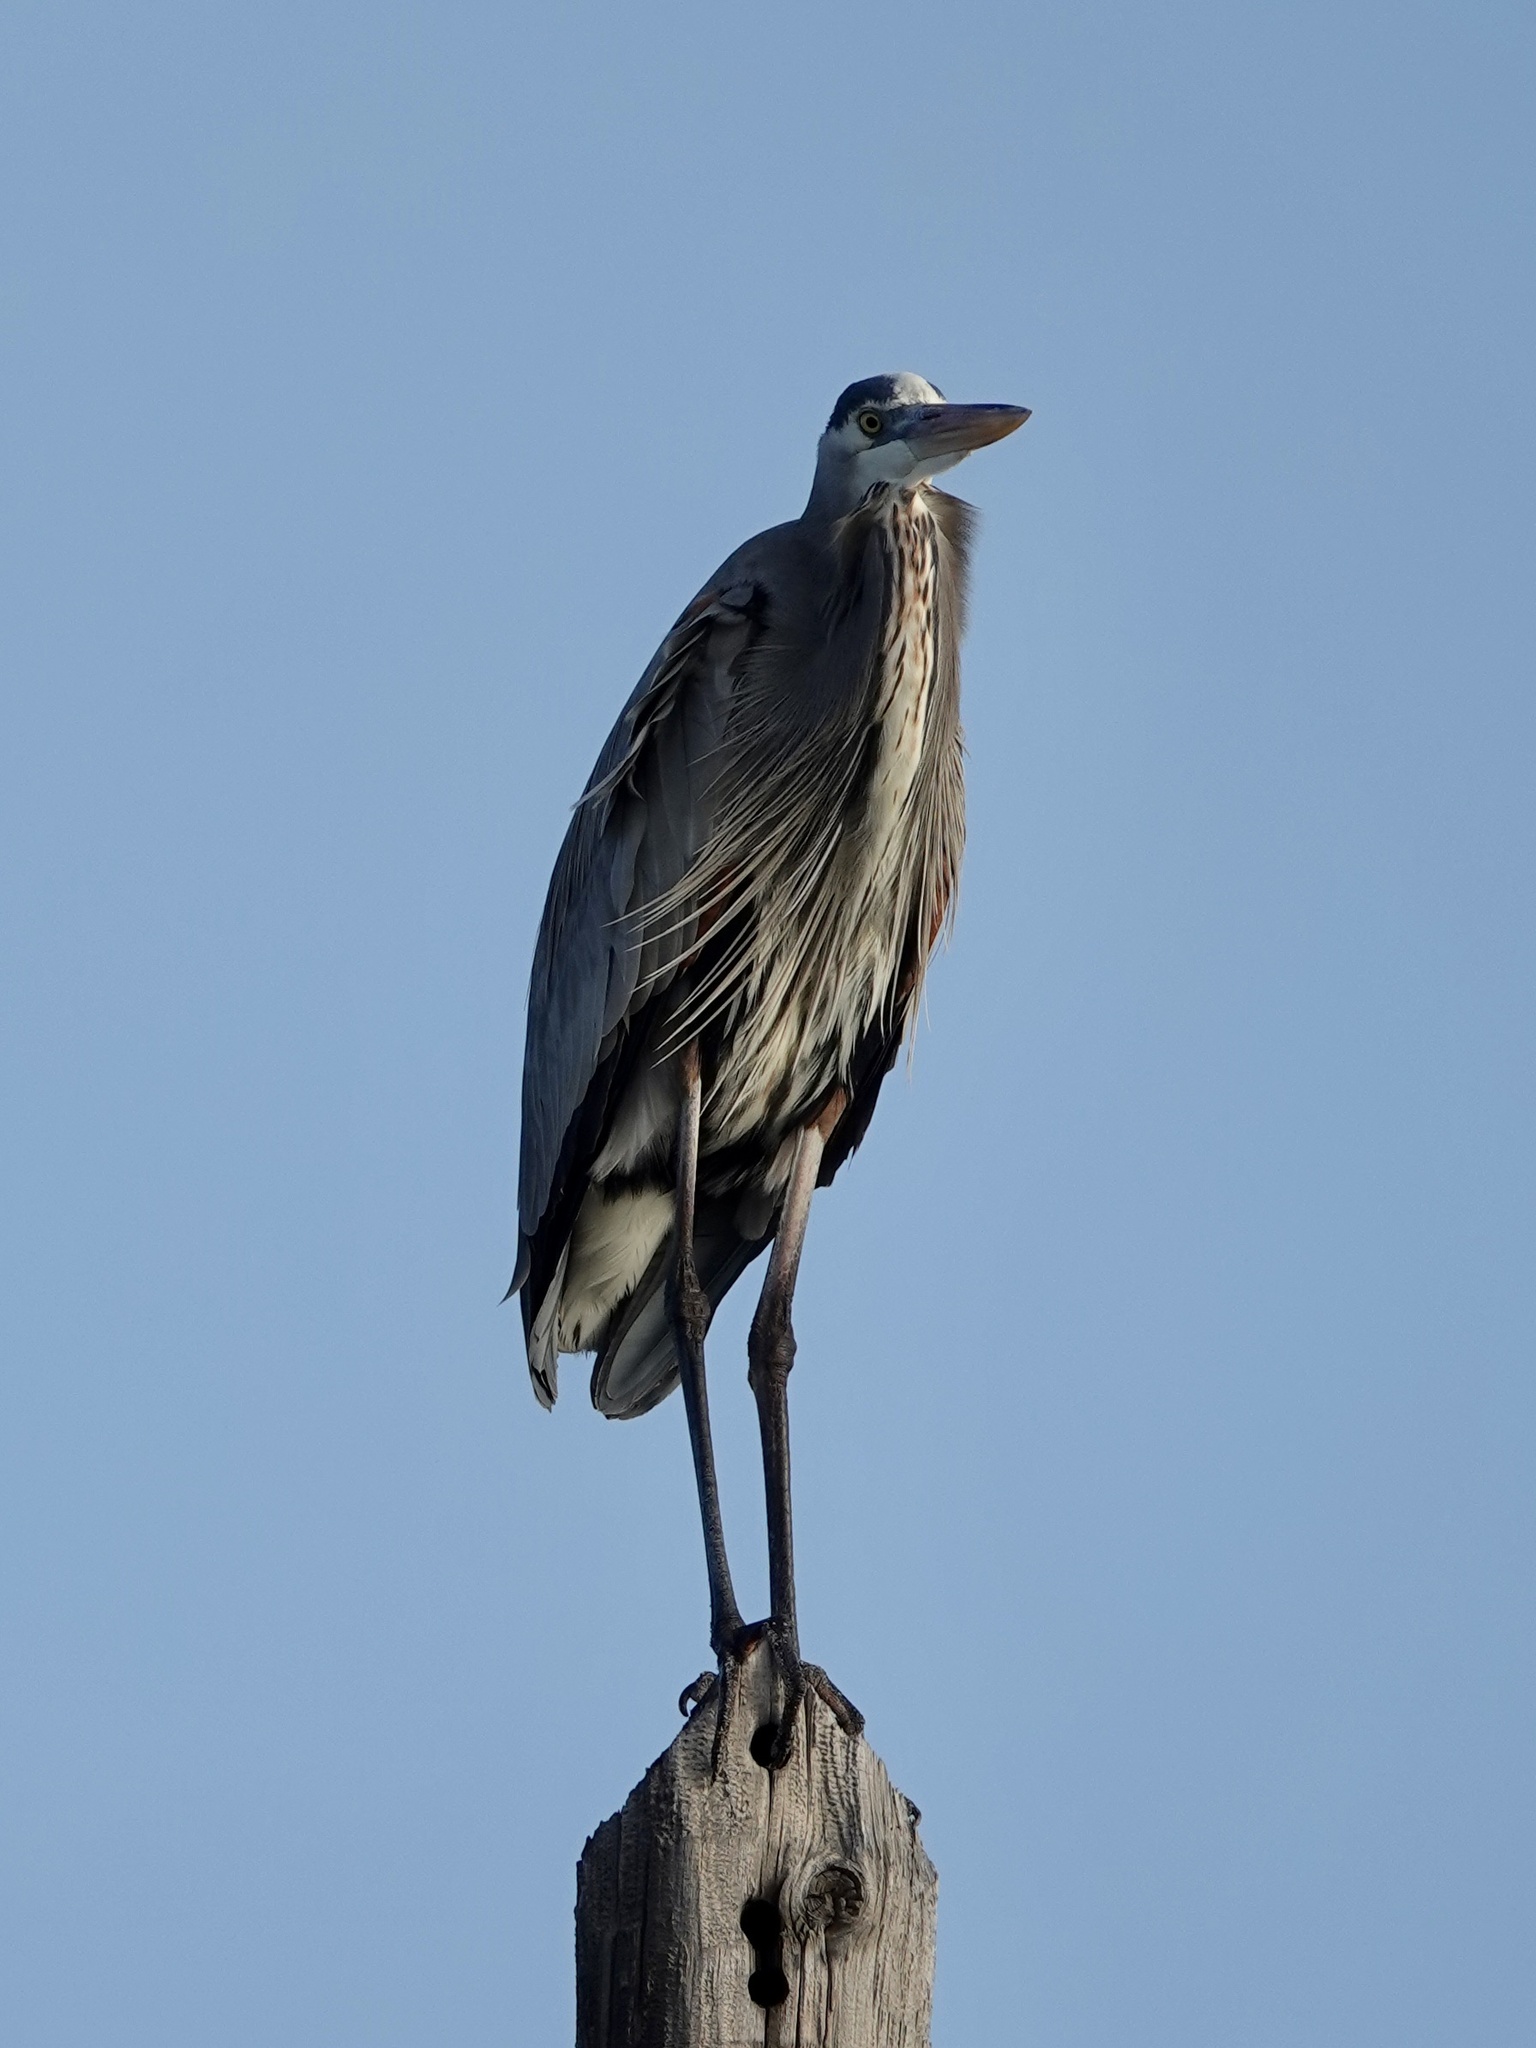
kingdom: Animalia
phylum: Chordata
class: Aves
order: Pelecaniformes
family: Ardeidae
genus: Ardea
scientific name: Ardea herodias
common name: Great blue heron
